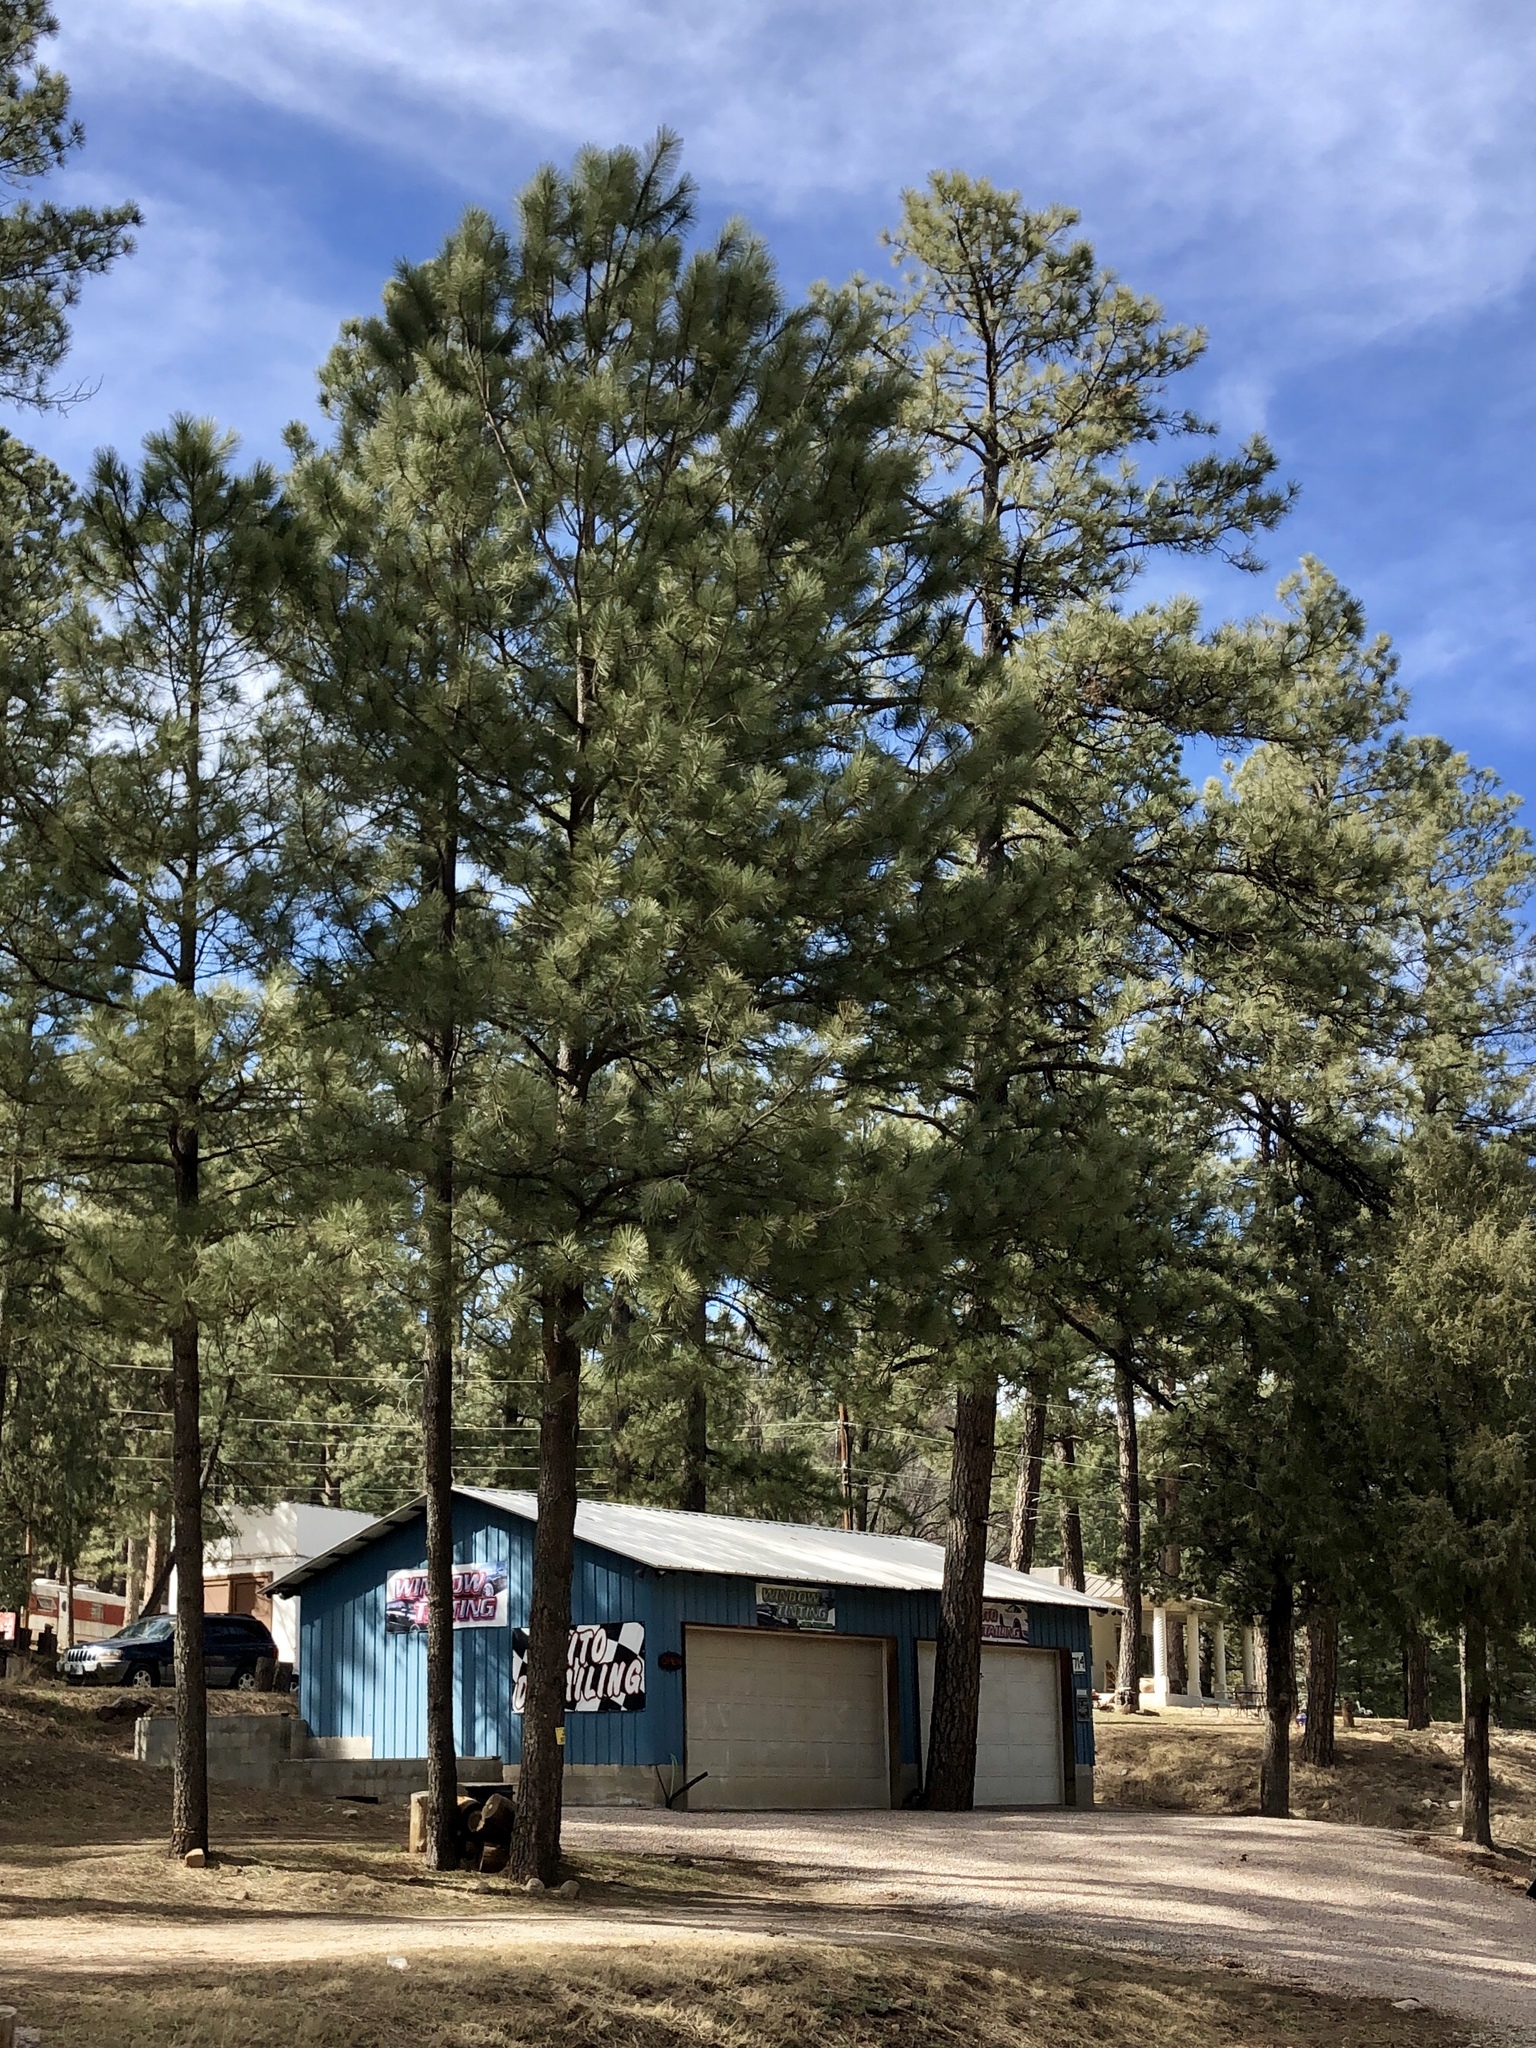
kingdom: Plantae
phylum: Tracheophyta
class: Pinopsida
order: Pinales
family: Pinaceae
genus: Pinus
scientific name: Pinus ponderosa
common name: Western yellow-pine
